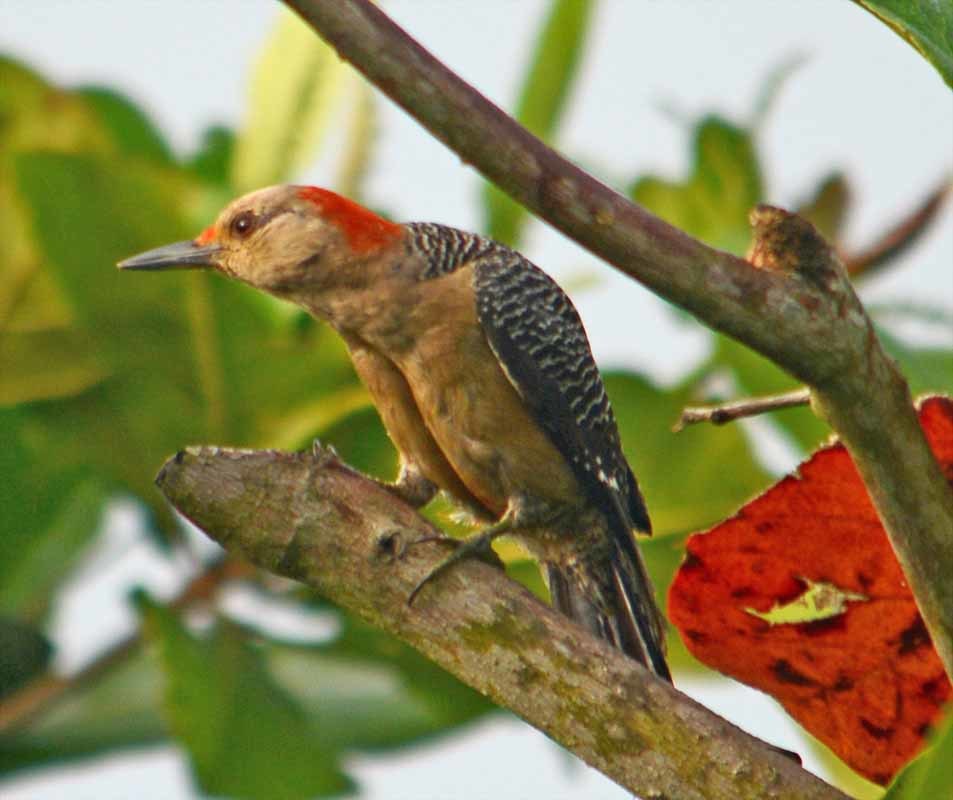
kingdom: Animalia
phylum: Chordata
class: Aves
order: Piciformes
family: Picidae
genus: Melanerpes
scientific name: Melanerpes aurifrons
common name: Golden-fronted woodpecker
